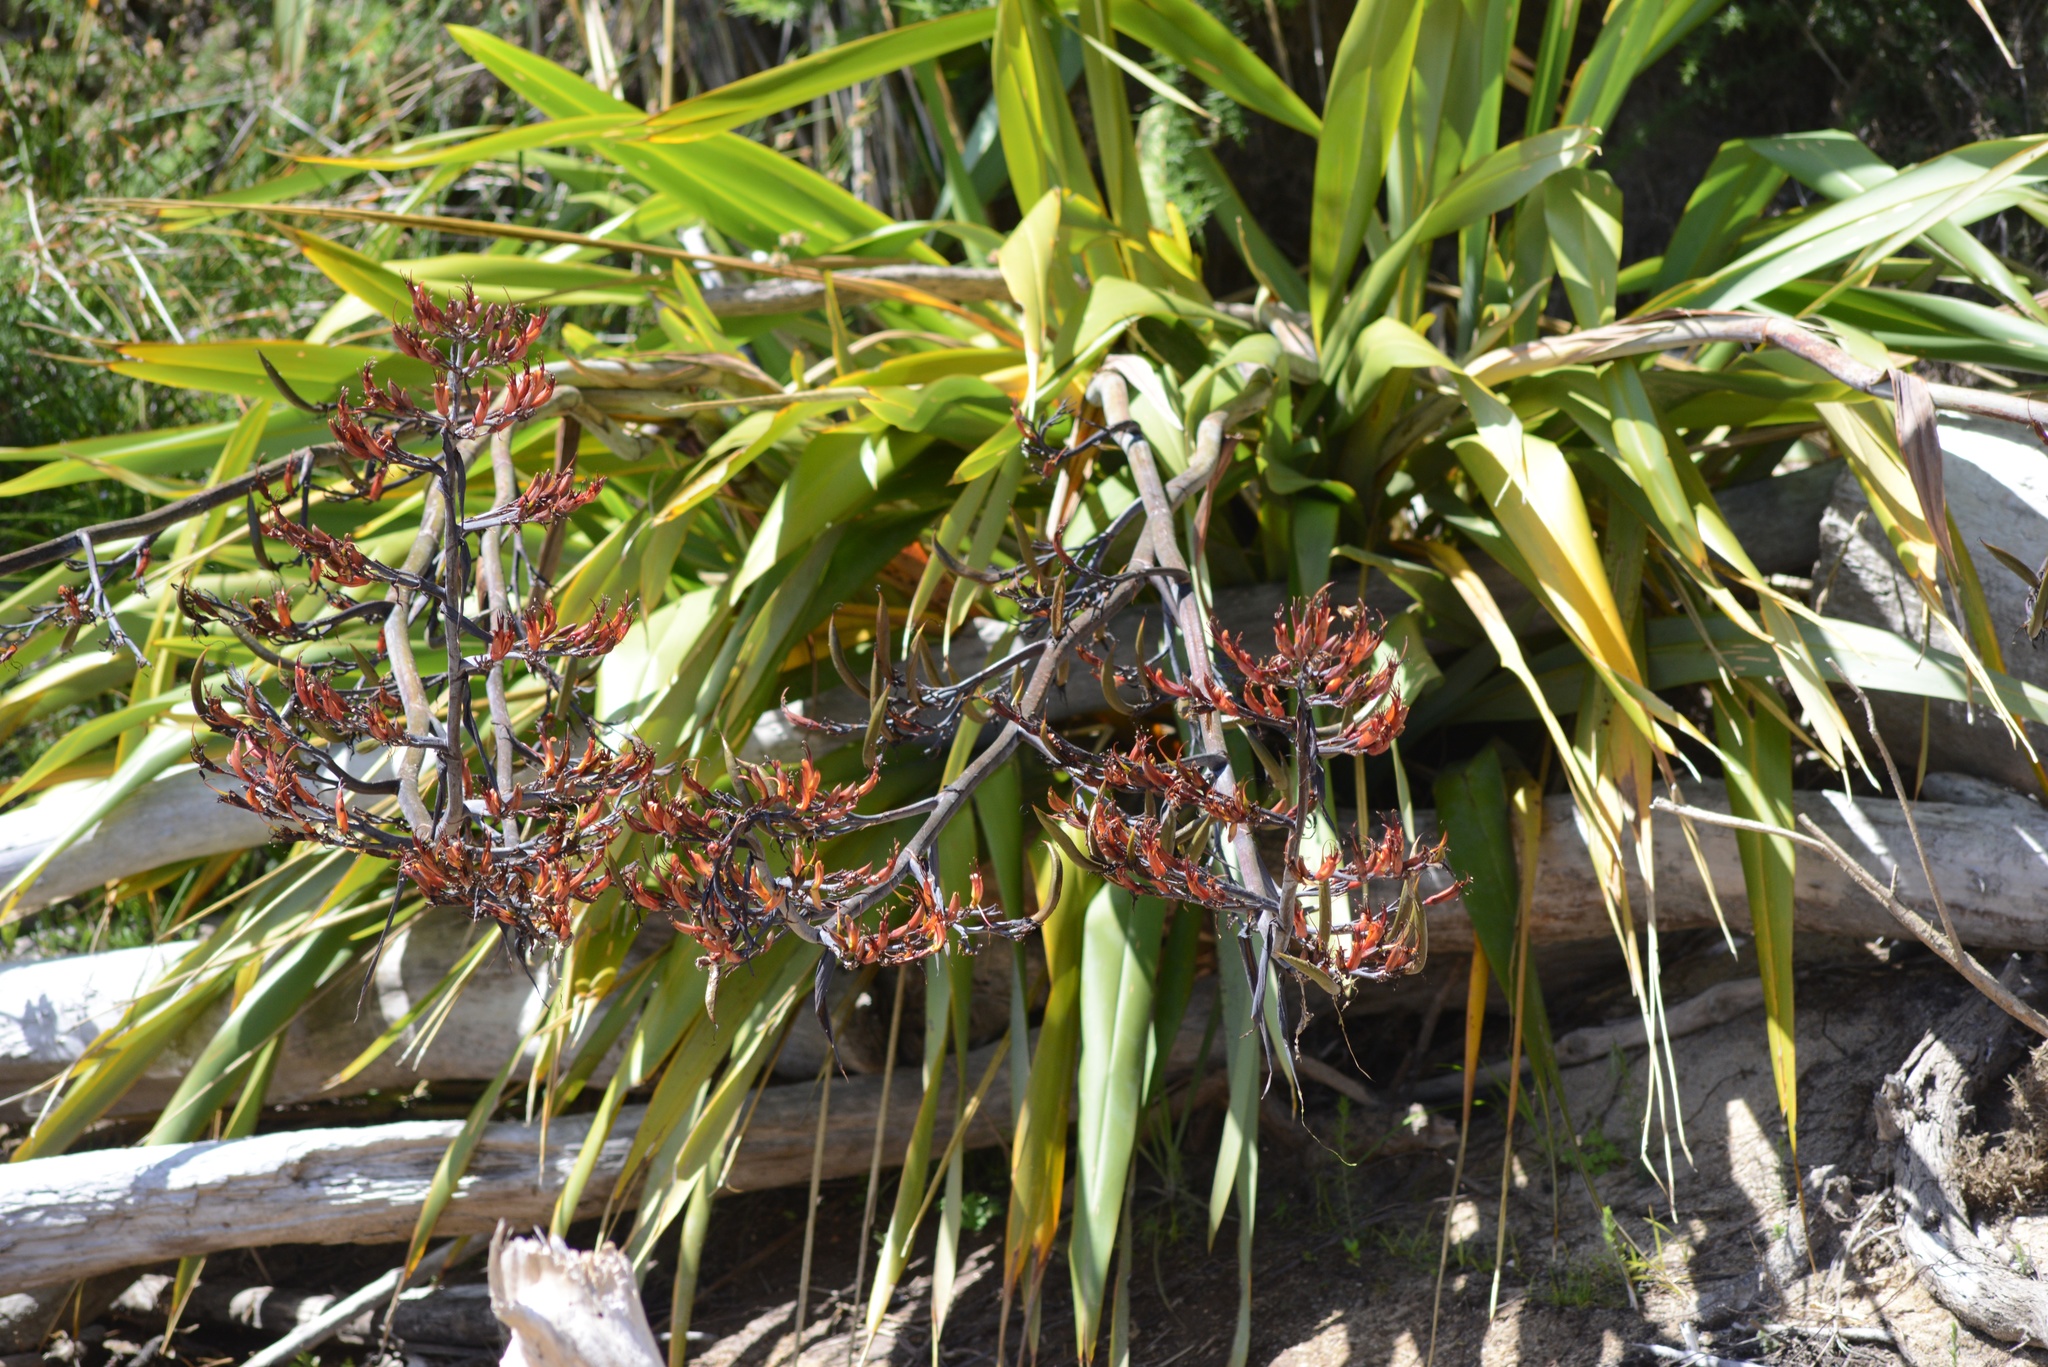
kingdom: Plantae
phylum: Tracheophyta
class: Liliopsida
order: Asparagales
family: Asphodelaceae
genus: Phormium
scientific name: Phormium colensoi
